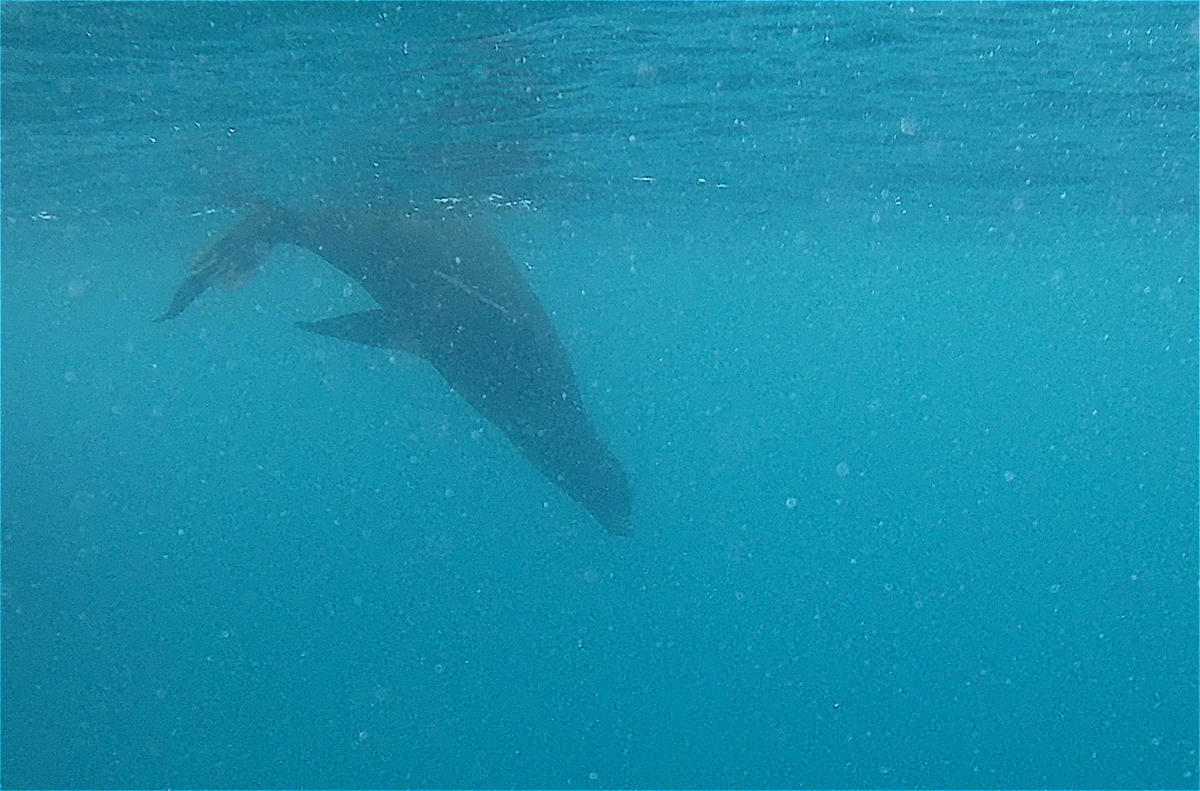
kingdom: Animalia
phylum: Chordata
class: Mammalia
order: Carnivora
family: Otariidae
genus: Zalophus
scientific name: Zalophus wollebaeki
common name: Galapagos sea lion
